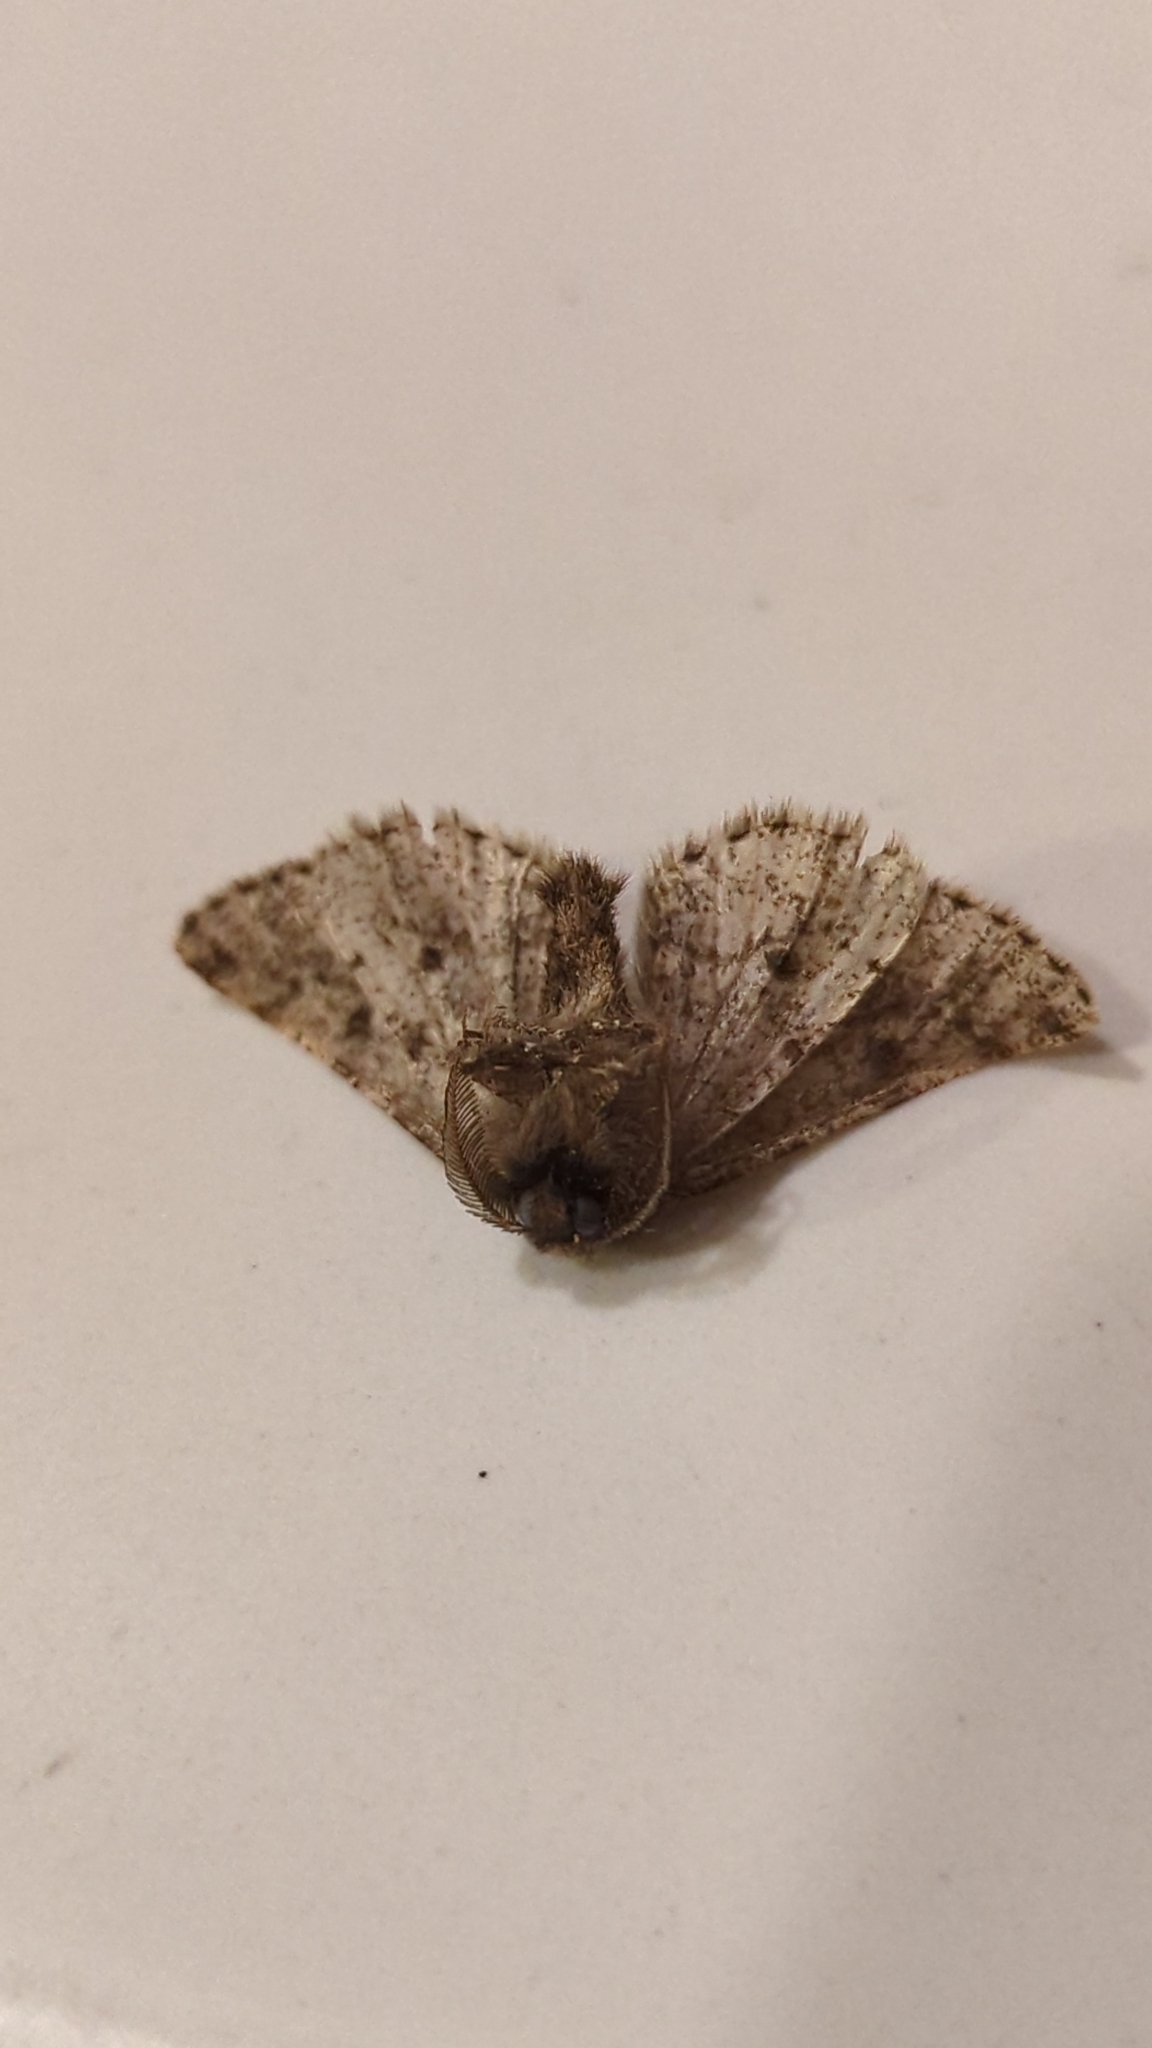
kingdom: Animalia
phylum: Arthropoda
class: Insecta
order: Lepidoptera
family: Geometridae
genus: Lycia
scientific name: Lycia ypsilon
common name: Wooly gray
